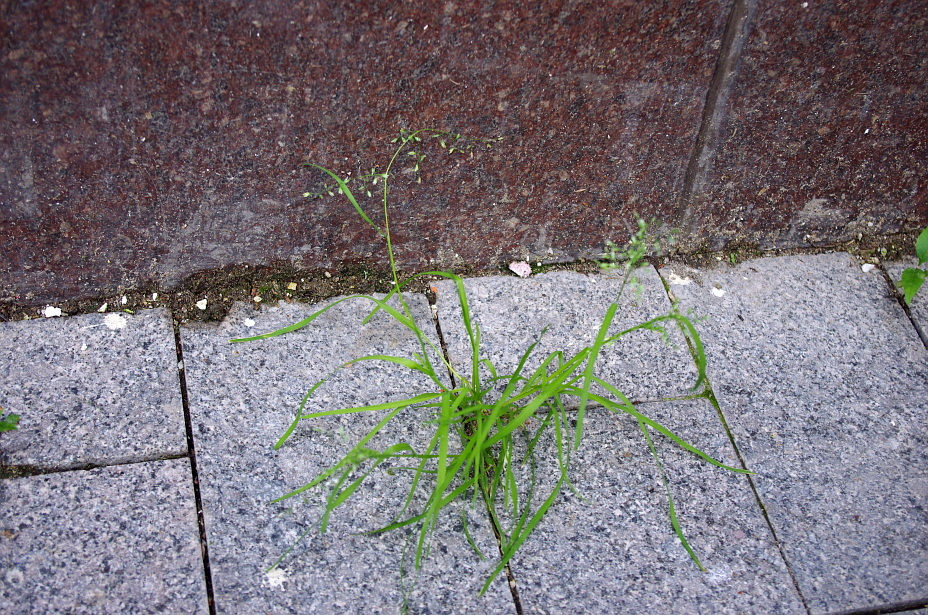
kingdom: Plantae
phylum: Tracheophyta
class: Liliopsida
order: Poales
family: Poaceae
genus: Poa
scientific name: Poa annua
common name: Annual bluegrass
